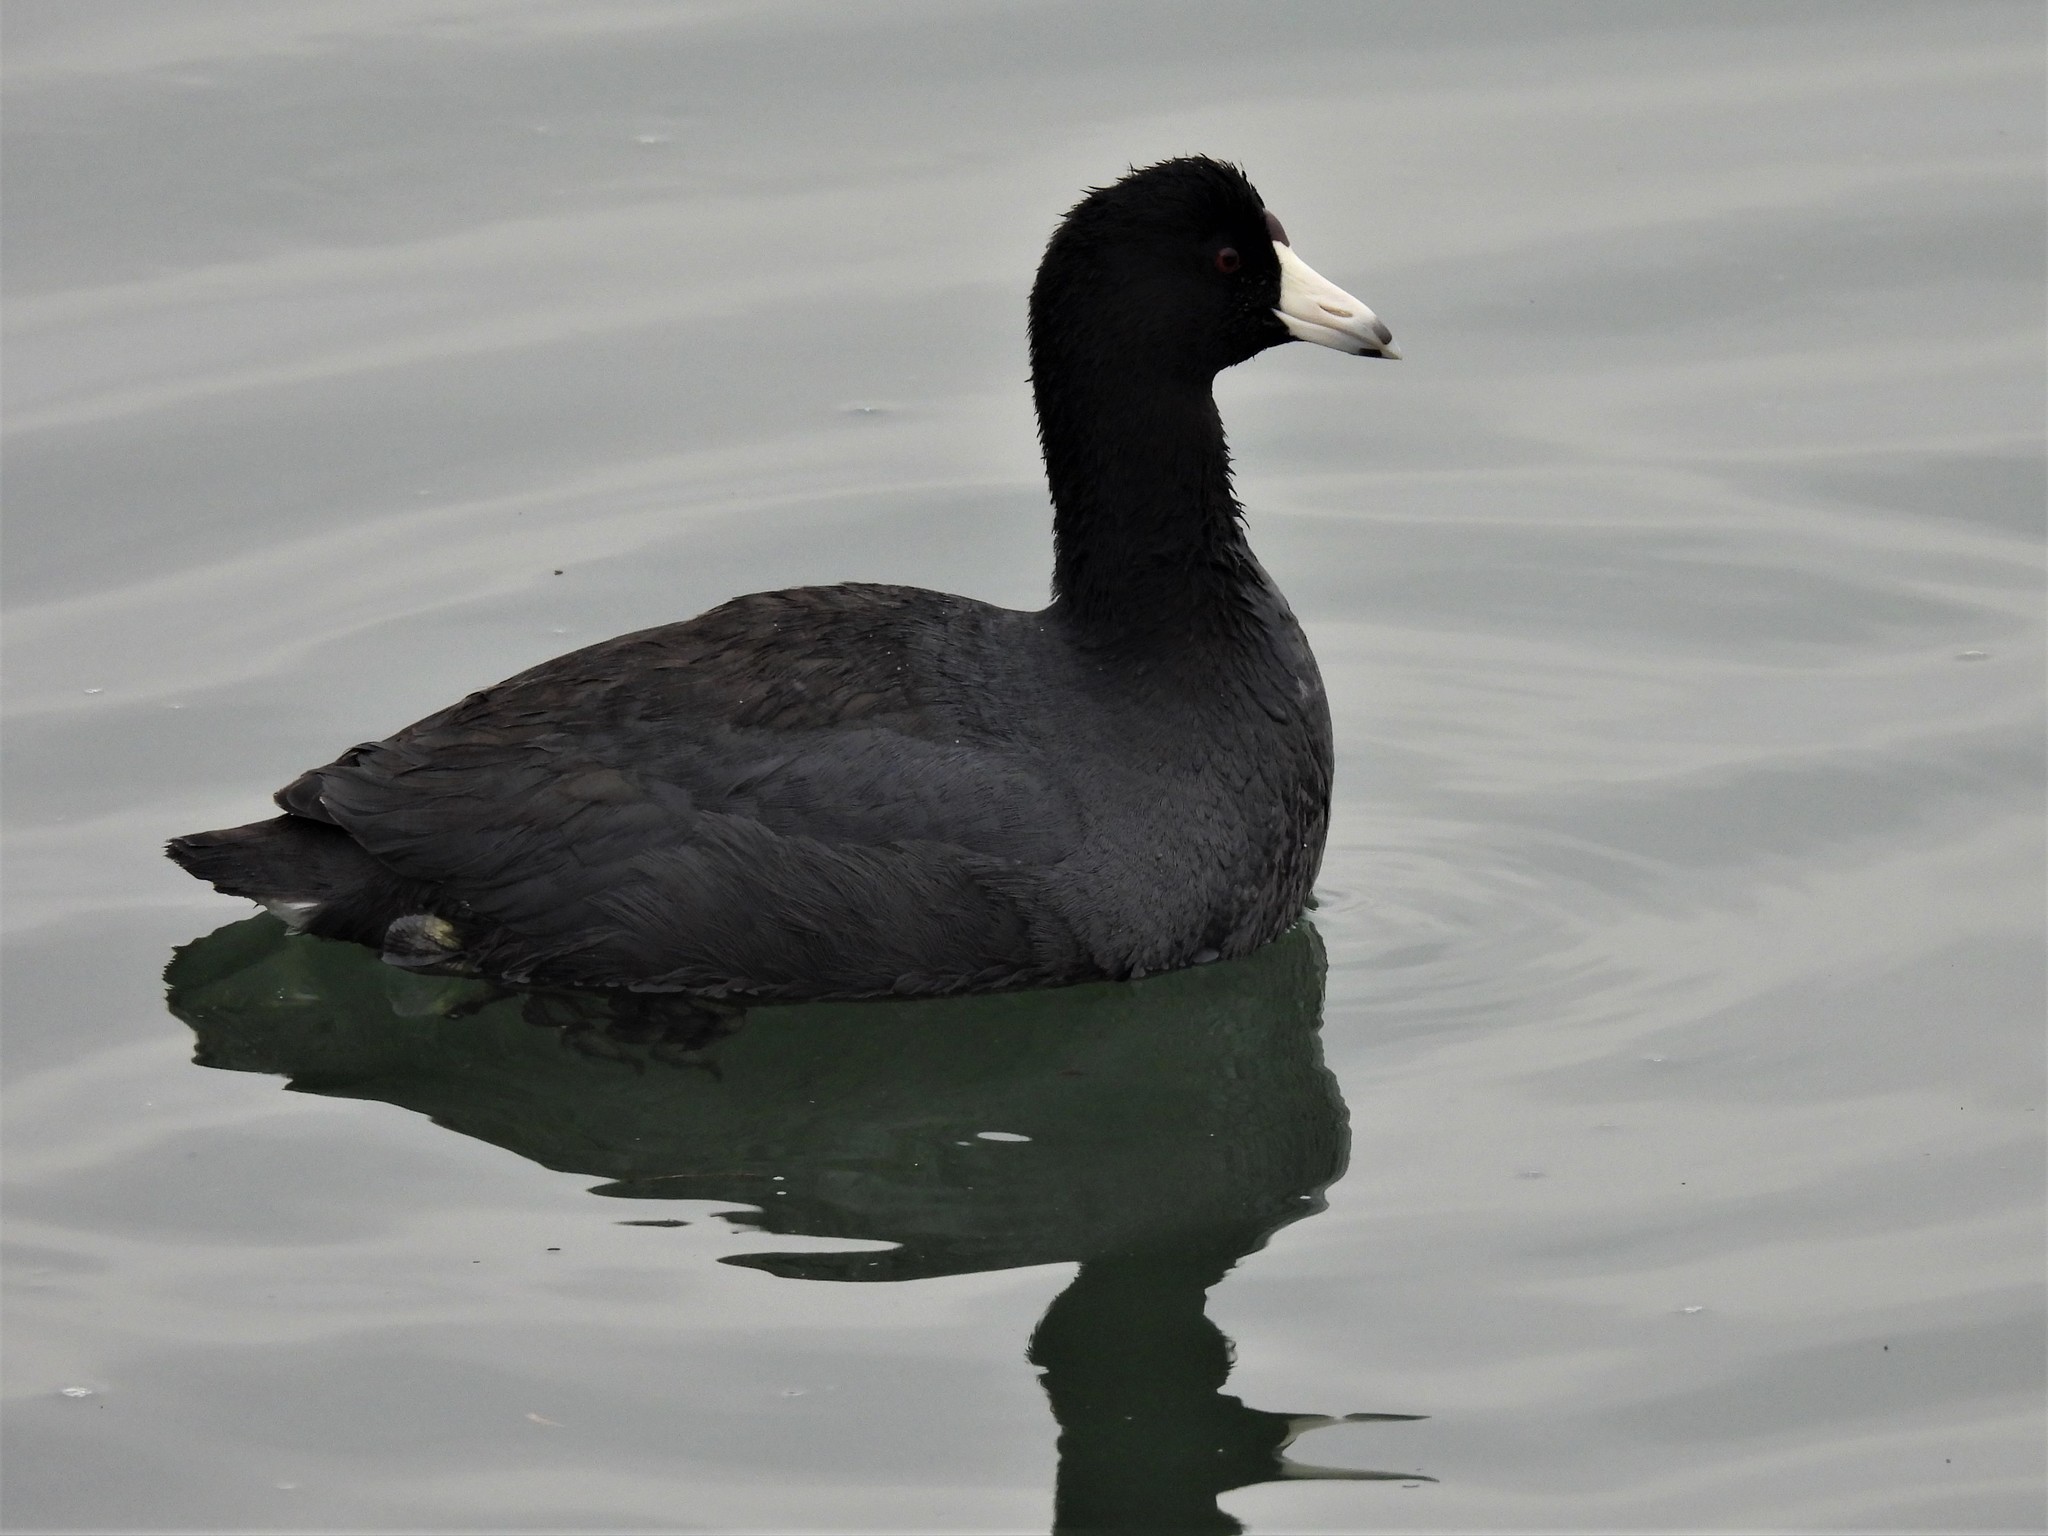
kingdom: Animalia
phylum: Chordata
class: Aves
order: Gruiformes
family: Rallidae
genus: Fulica
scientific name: Fulica americana
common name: American coot
